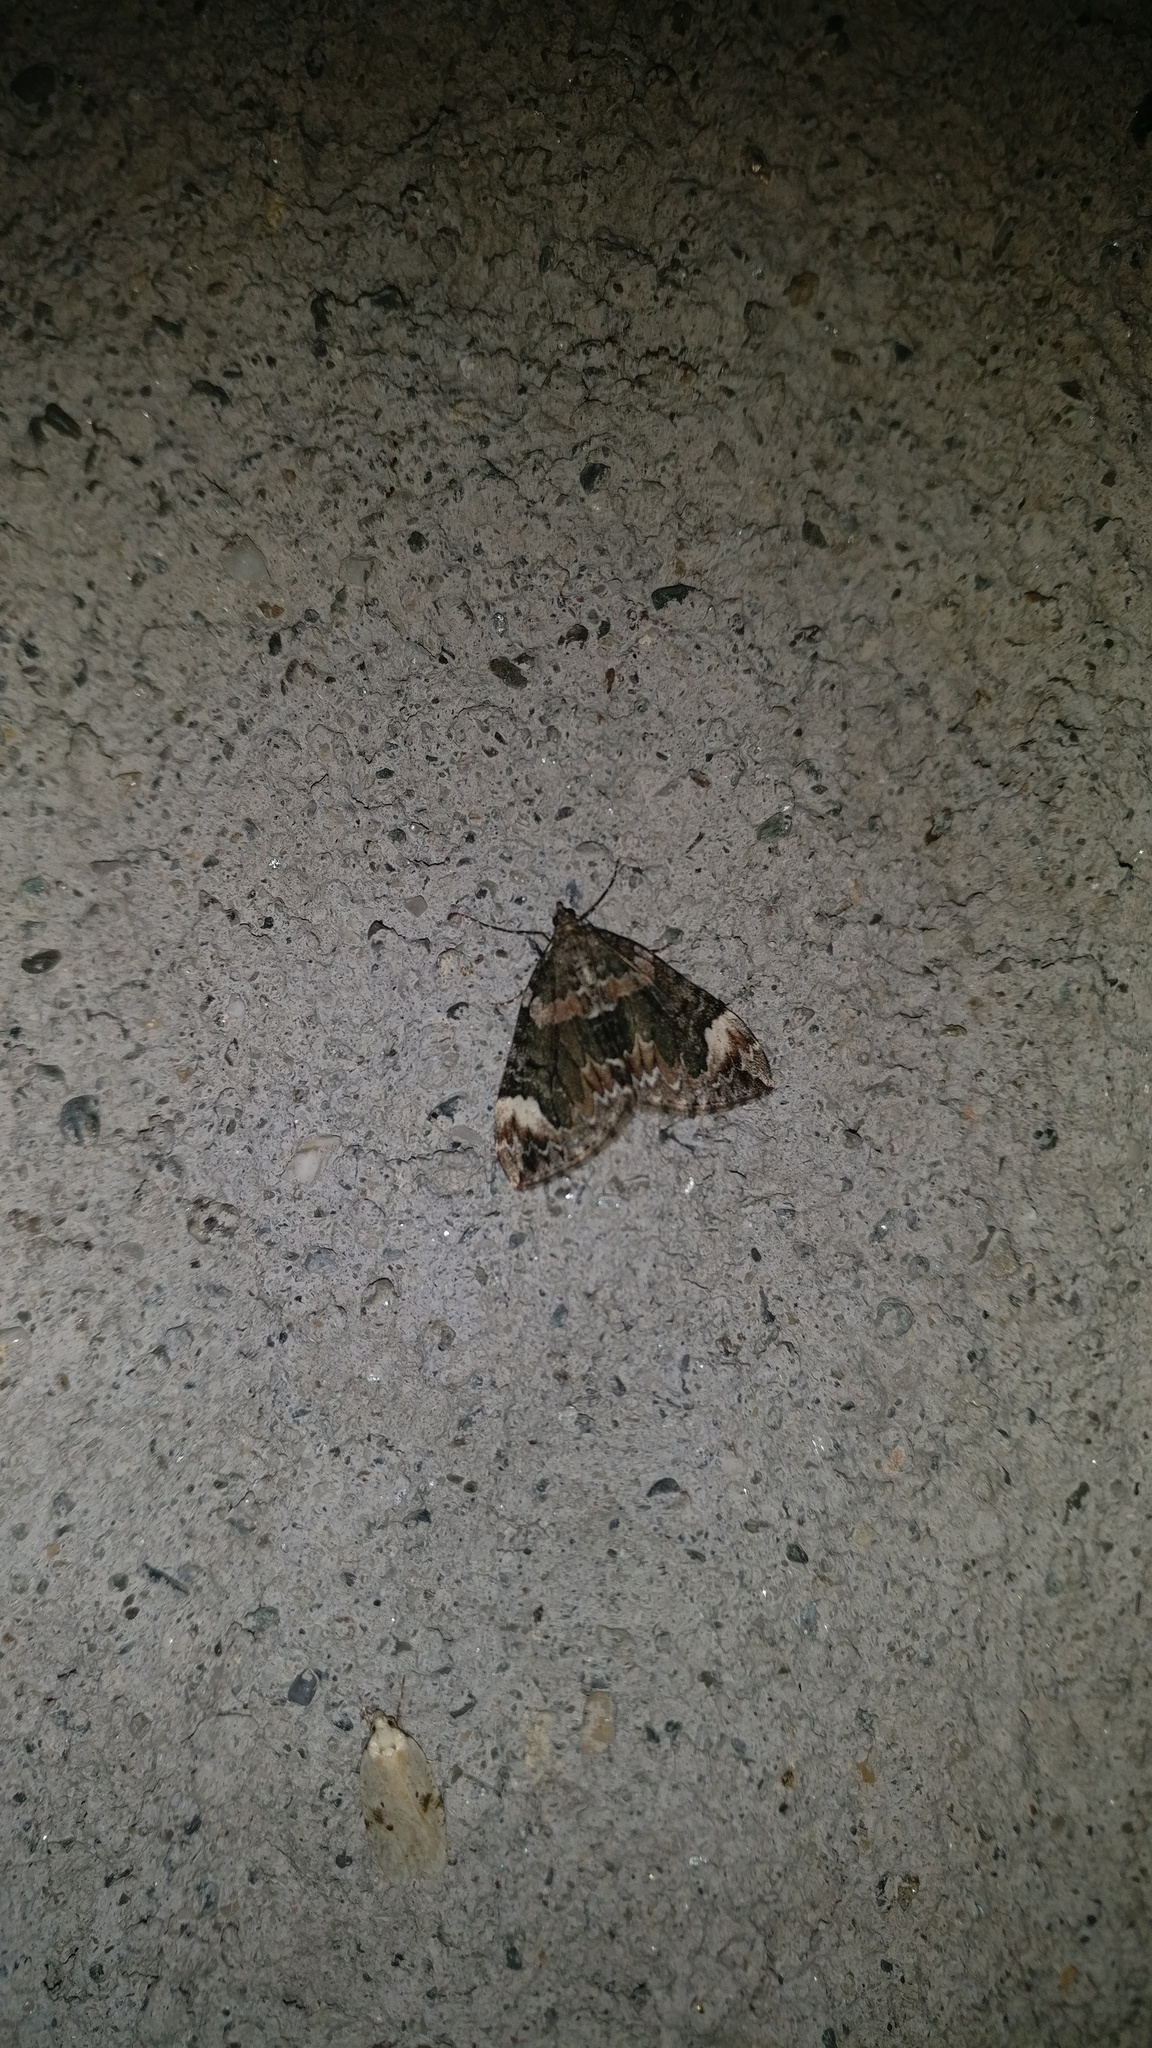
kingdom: Animalia
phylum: Arthropoda
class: Insecta
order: Lepidoptera
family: Geometridae
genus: Dysstroma
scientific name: Dysstroma citrata
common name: Dark marbled carpet
